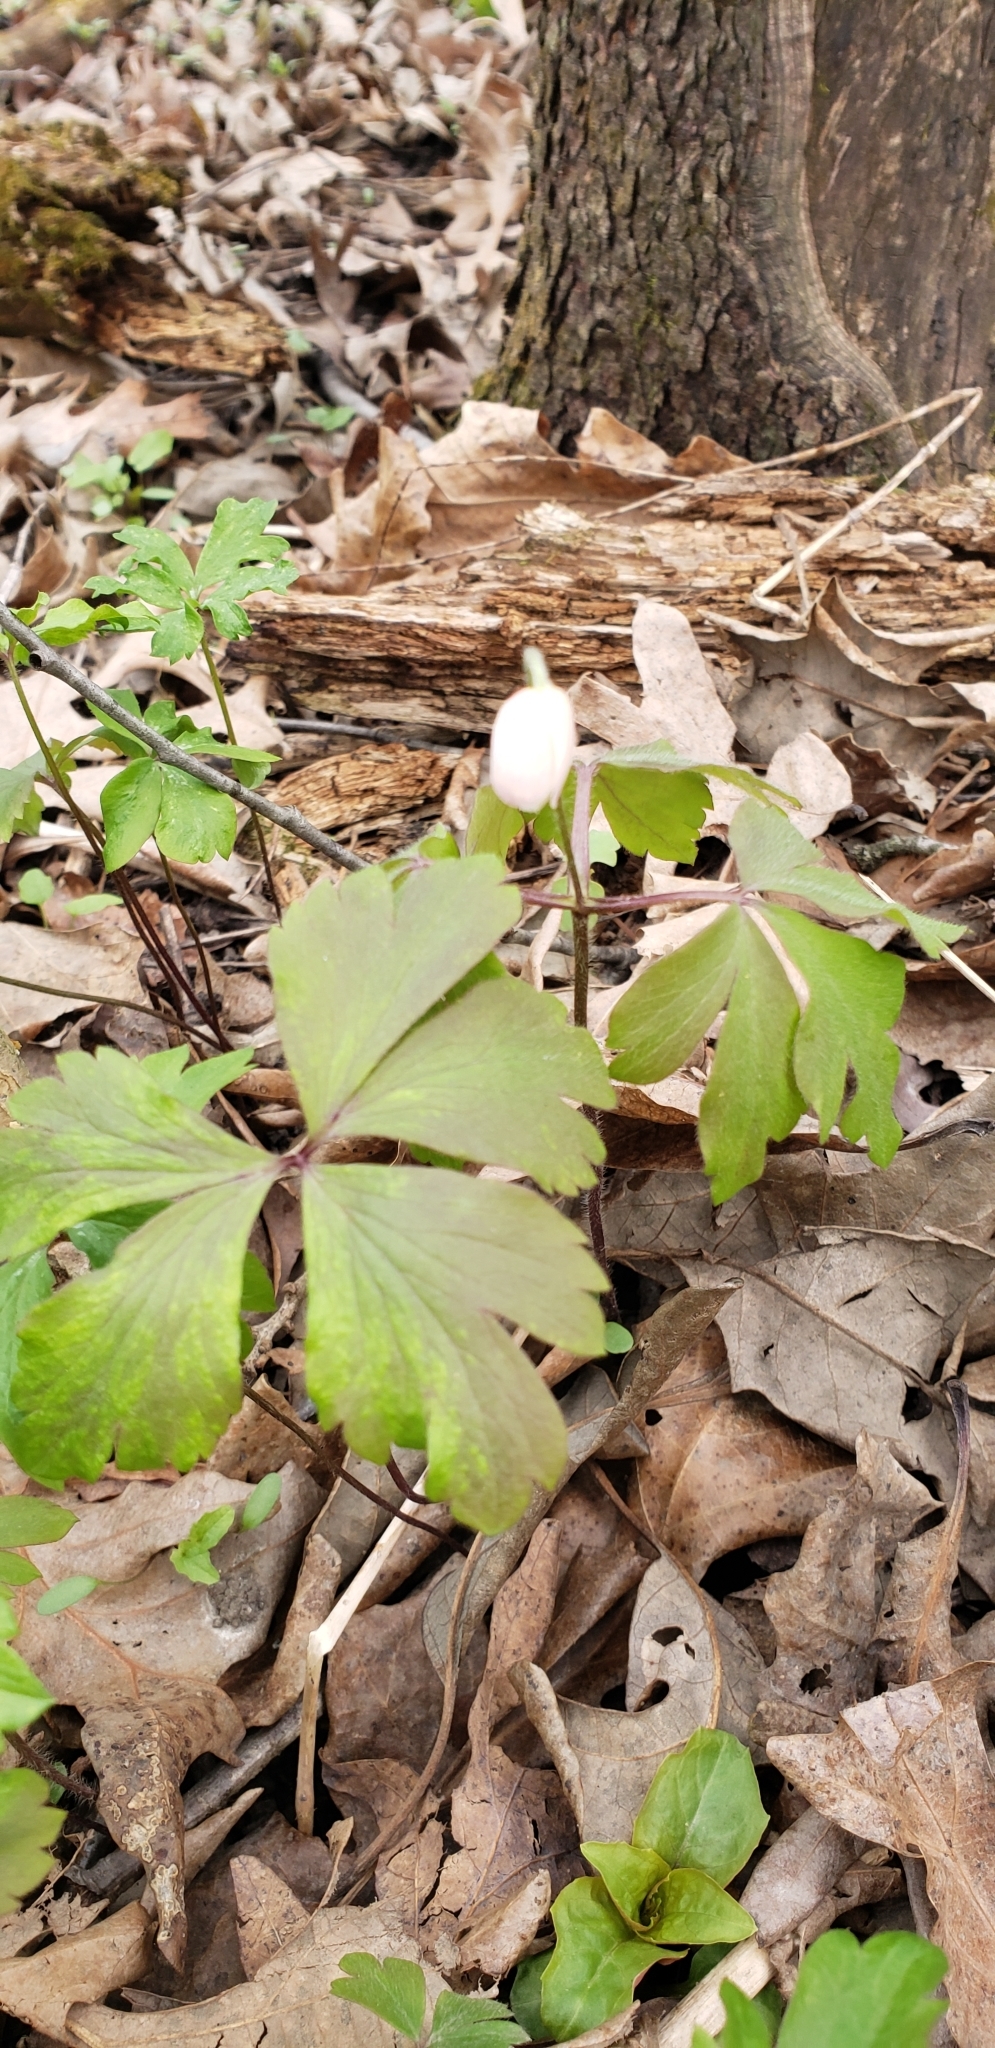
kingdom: Plantae
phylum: Tracheophyta
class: Magnoliopsida
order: Ranunculales
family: Ranunculaceae
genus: Anemone
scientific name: Anemone quinquefolia
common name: Wood anemone
